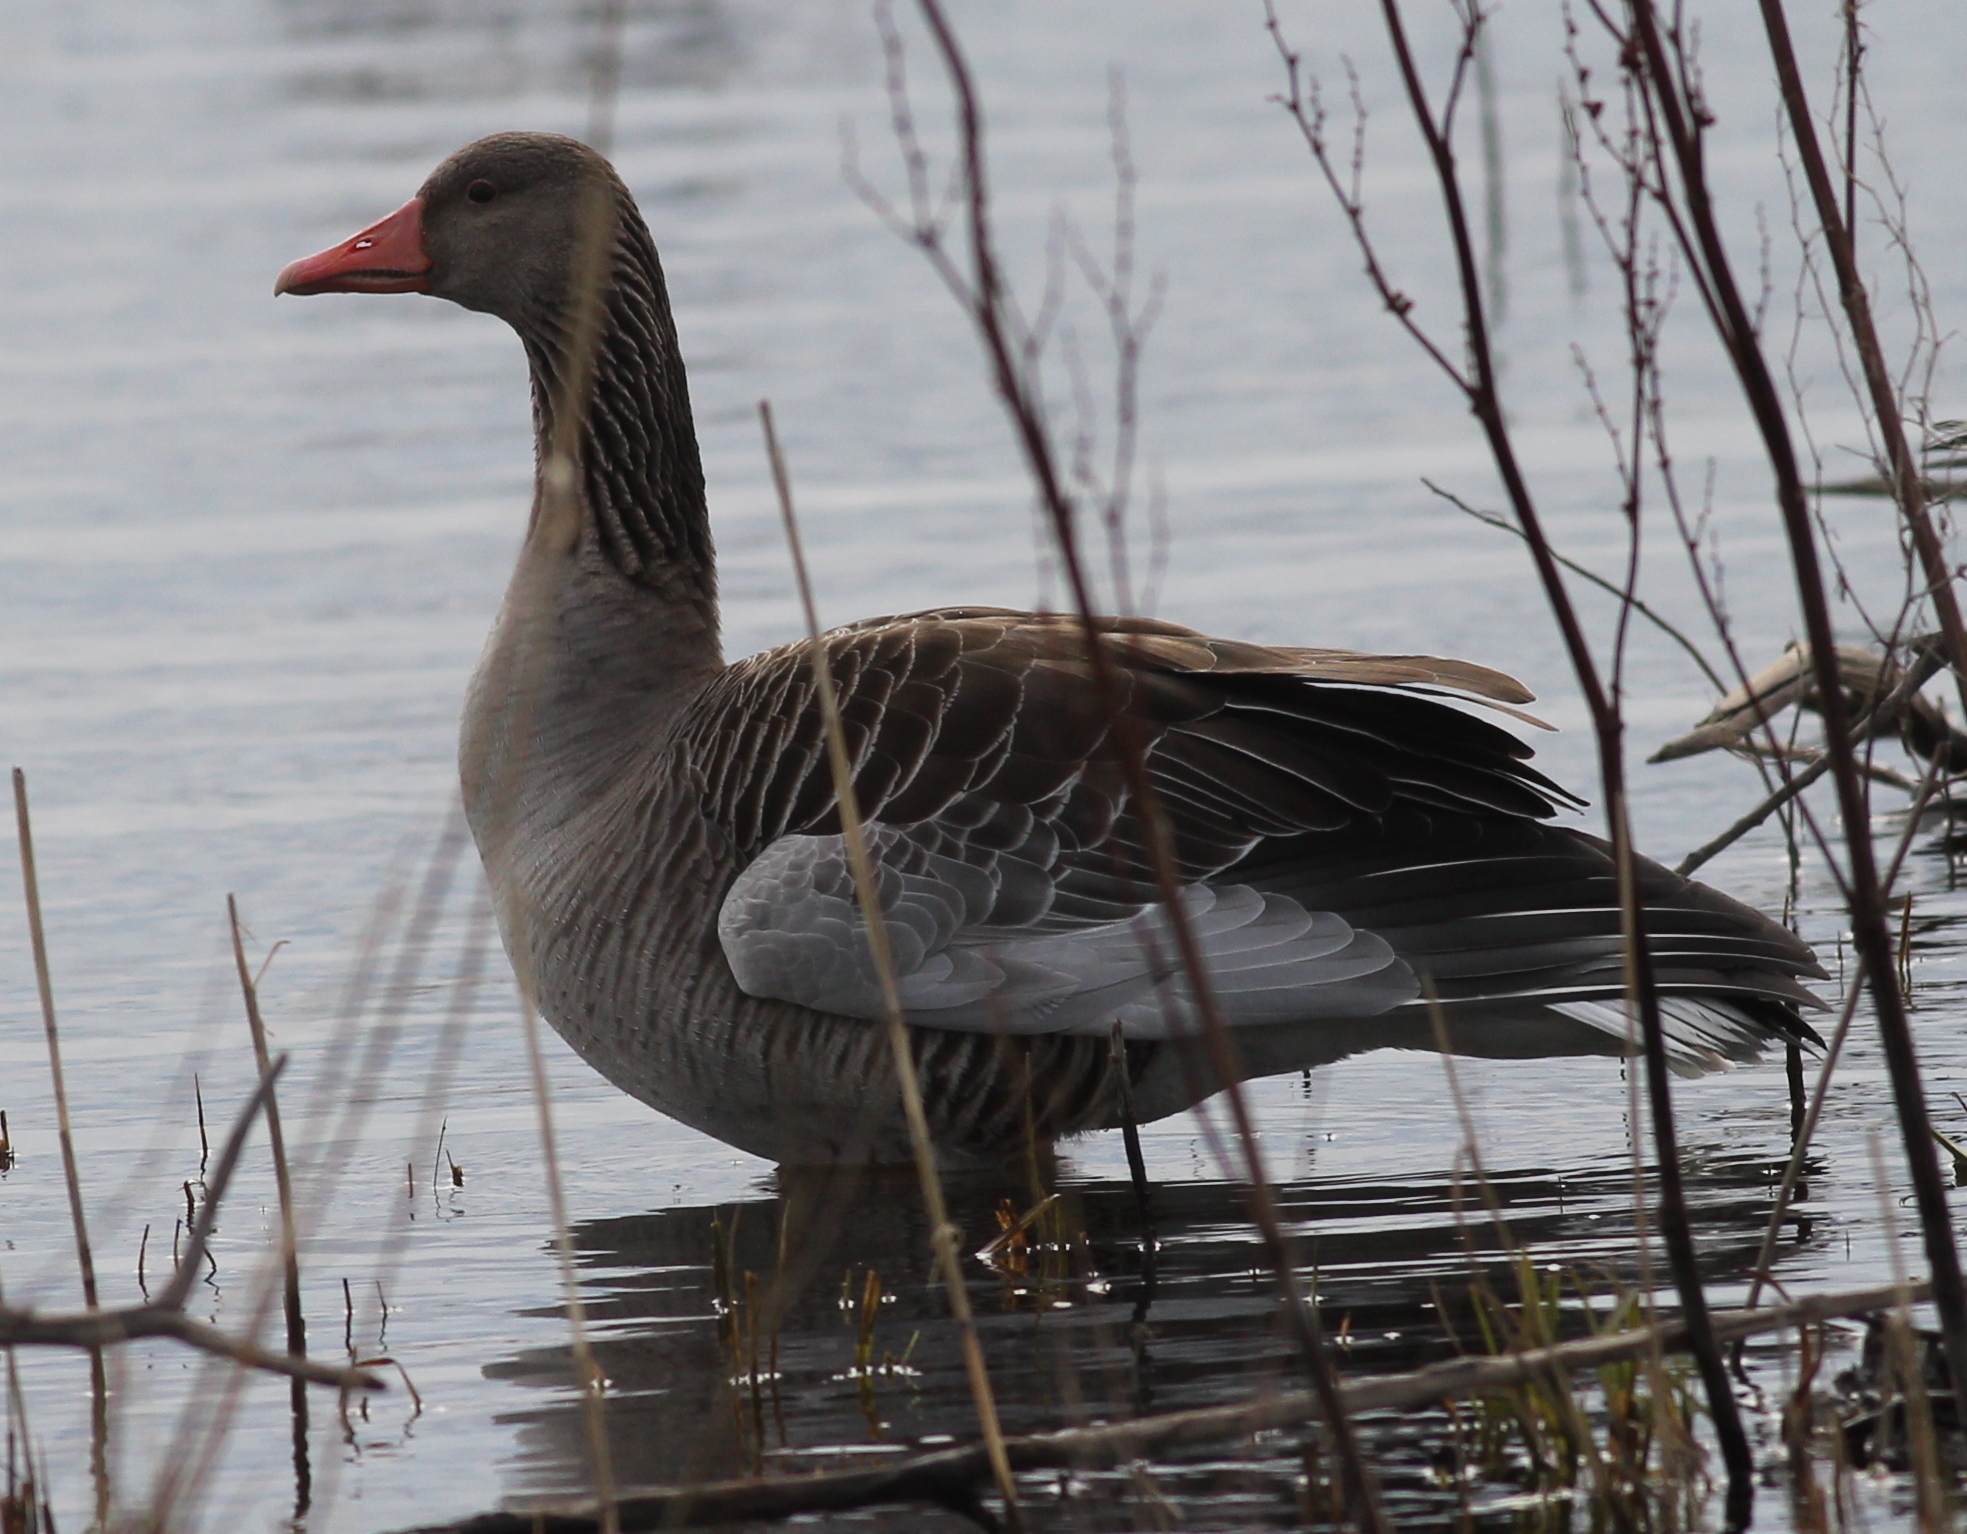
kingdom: Animalia
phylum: Chordata
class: Aves
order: Anseriformes
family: Anatidae
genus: Anser
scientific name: Anser anser
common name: Greylag goose
